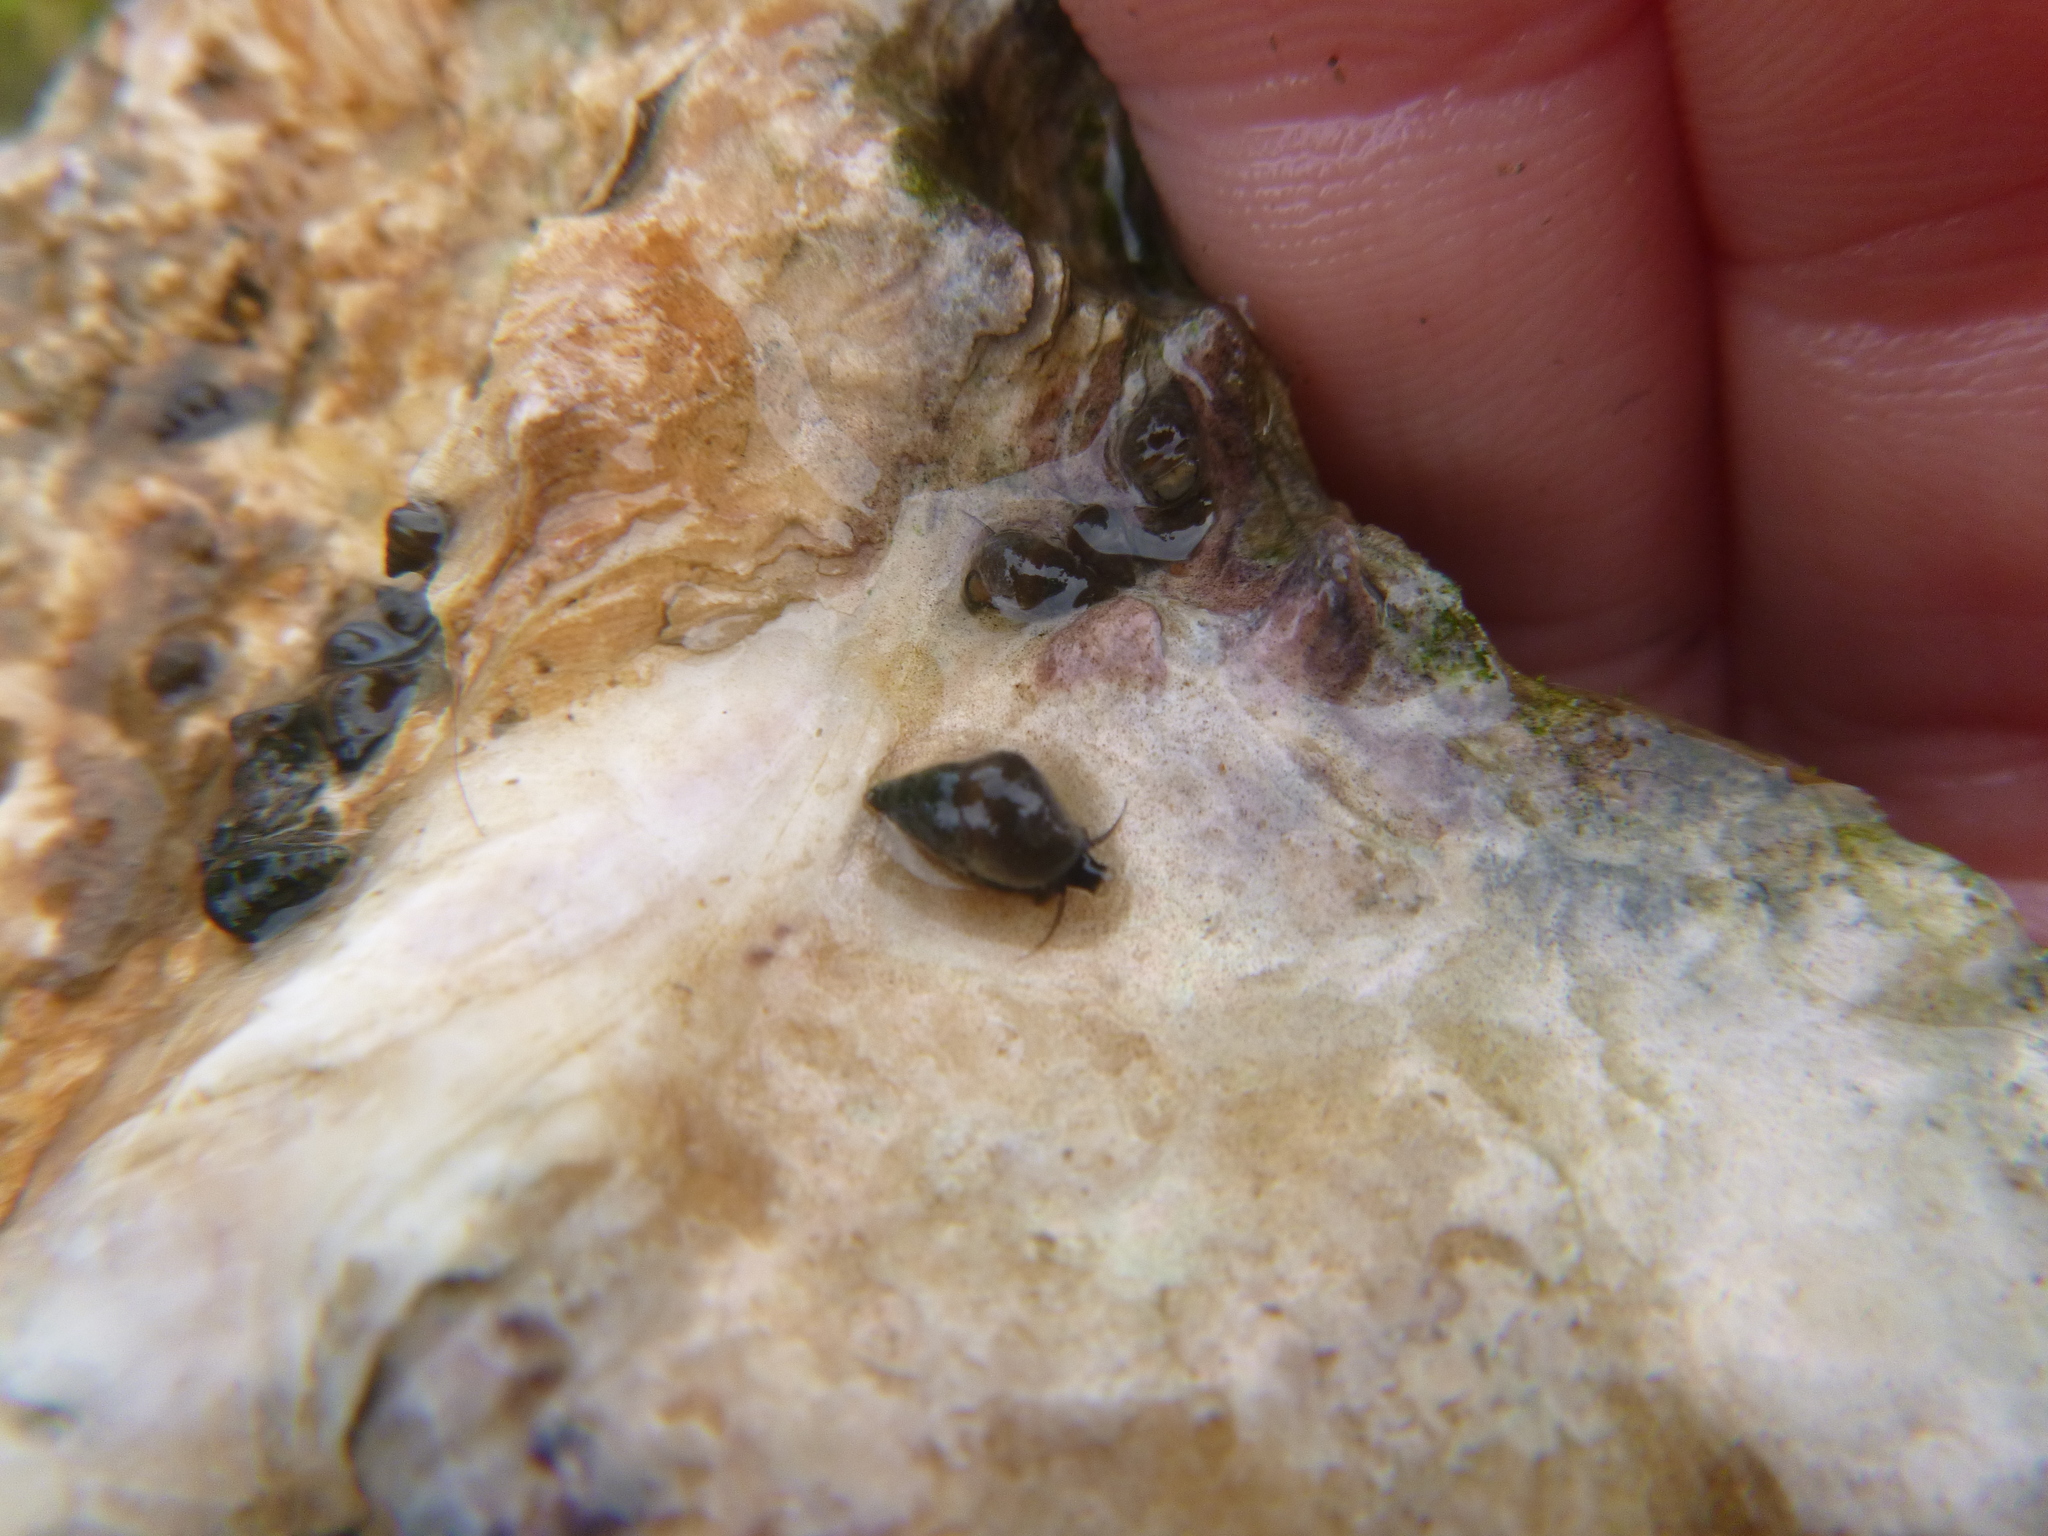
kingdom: Animalia
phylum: Mollusca
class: Gastropoda
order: Littorinimorpha
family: Tateidae
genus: Potamopyrgus
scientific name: Potamopyrgus estuarinus
